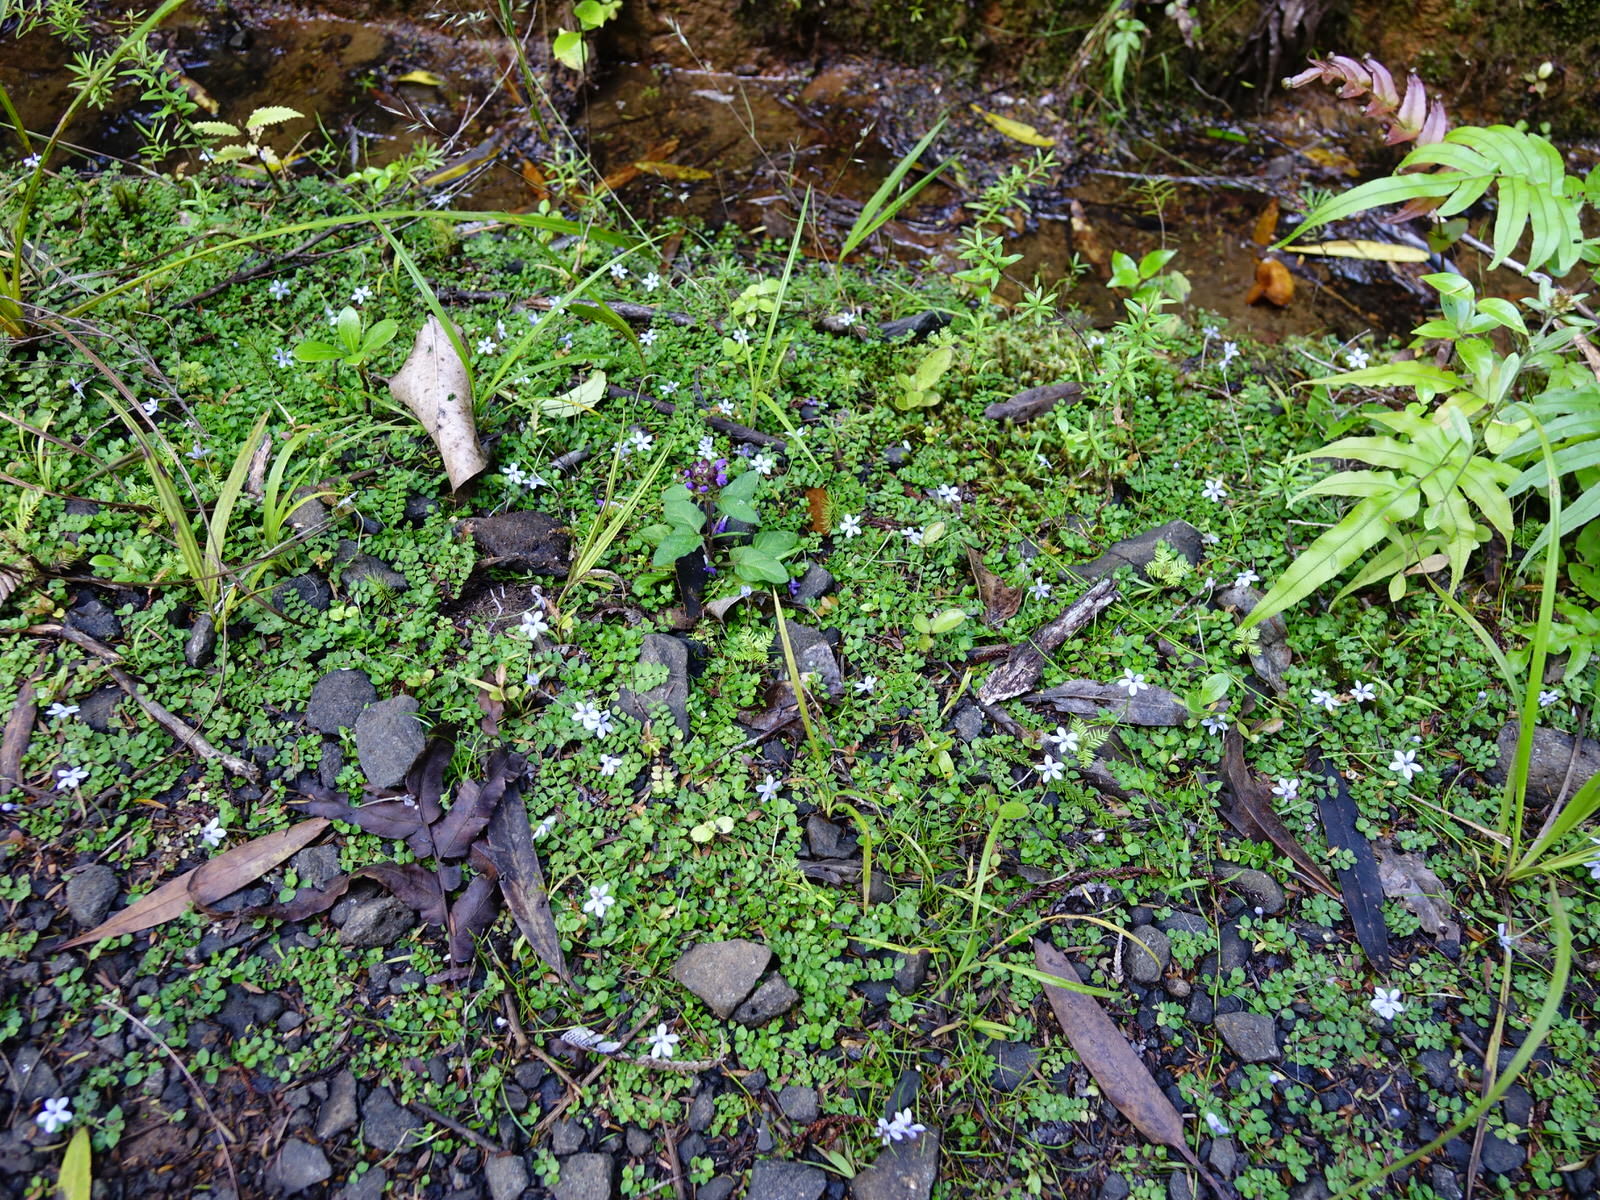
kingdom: Plantae
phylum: Tracheophyta
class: Magnoliopsida
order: Asterales
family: Campanulaceae
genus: Lobelia
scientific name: Lobelia pedunculata
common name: Matted pratia
